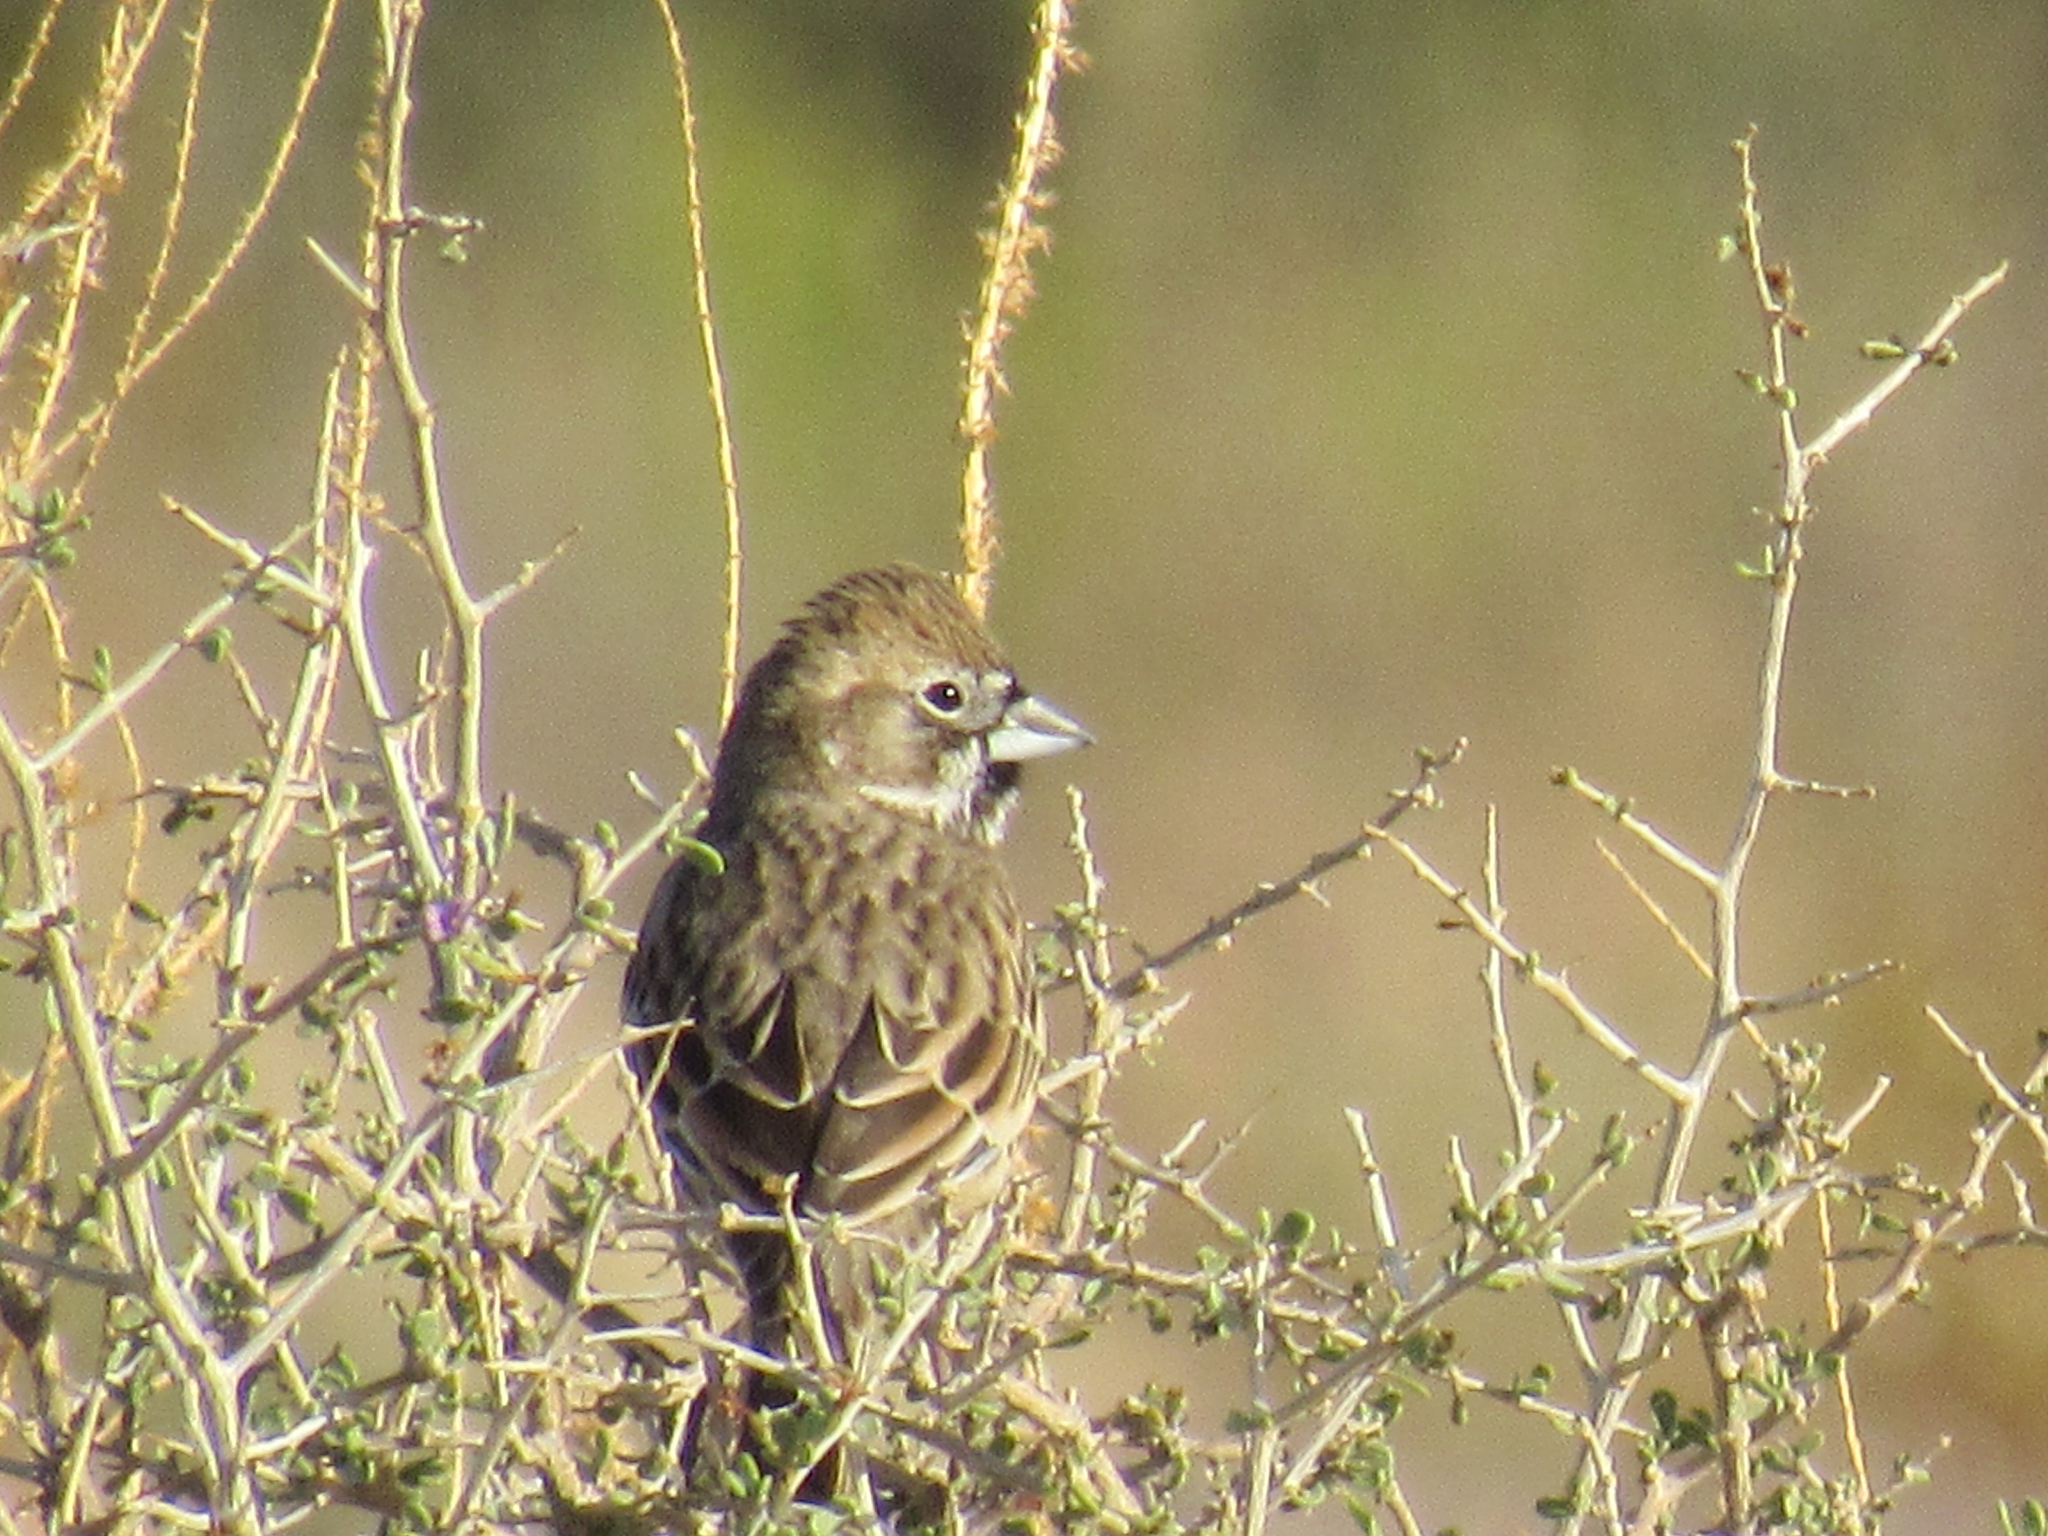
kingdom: Animalia
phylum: Chordata
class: Aves
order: Passeriformes
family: Passerellidae
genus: Calamospiza
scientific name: Calamospiza melanocorys
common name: Lark bunting
